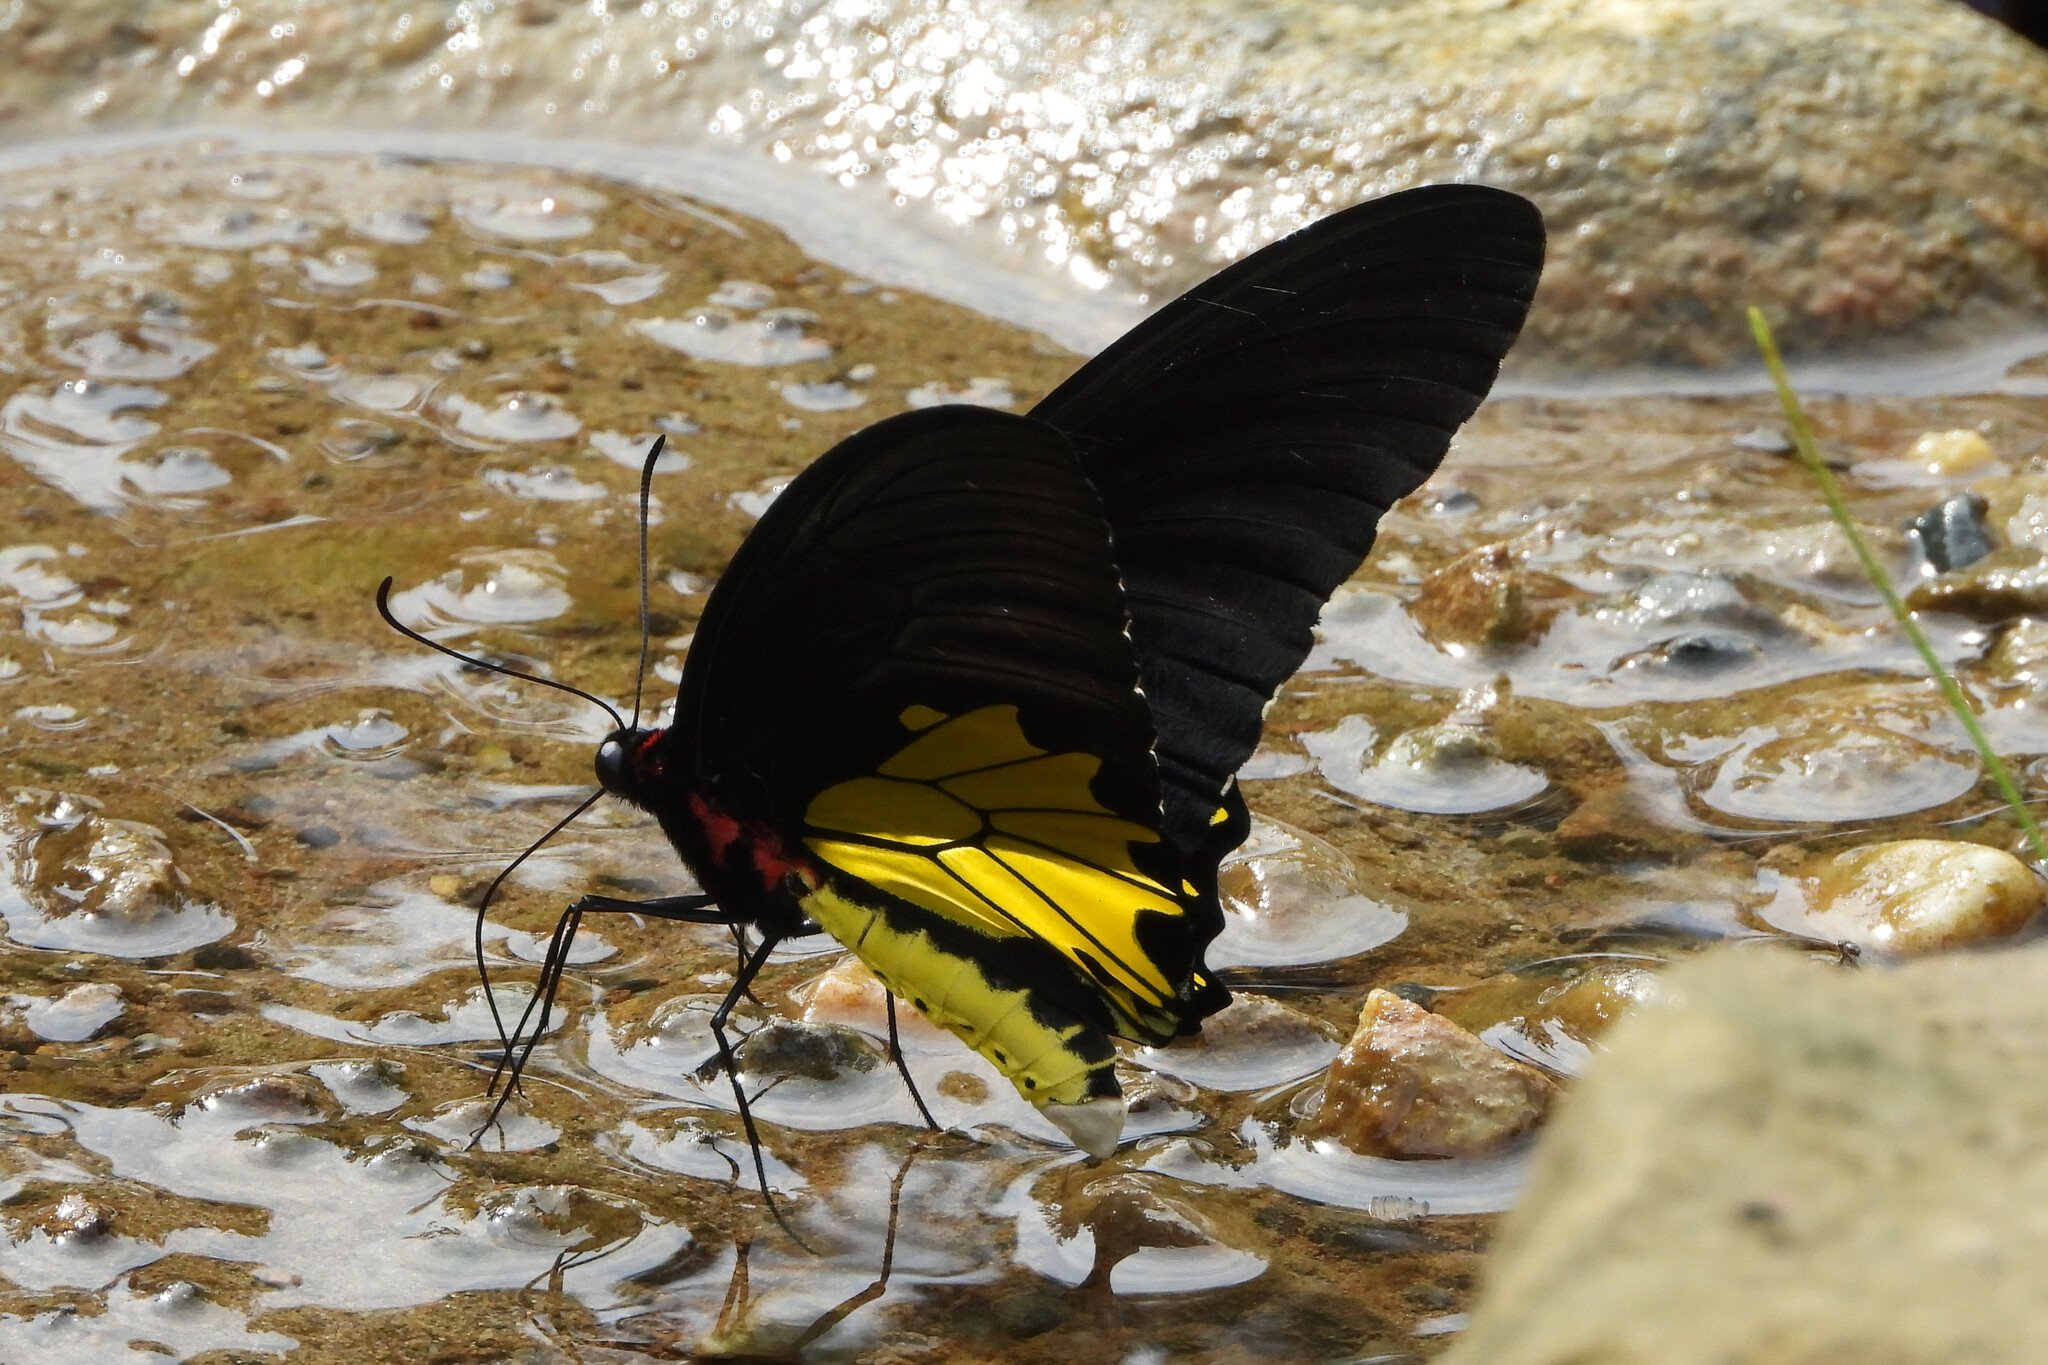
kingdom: Animalia
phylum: Arthropoda
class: Insecta
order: Lepidoptera
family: Papilionidae
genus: Troides
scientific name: Troides helena
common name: Common birdwing
